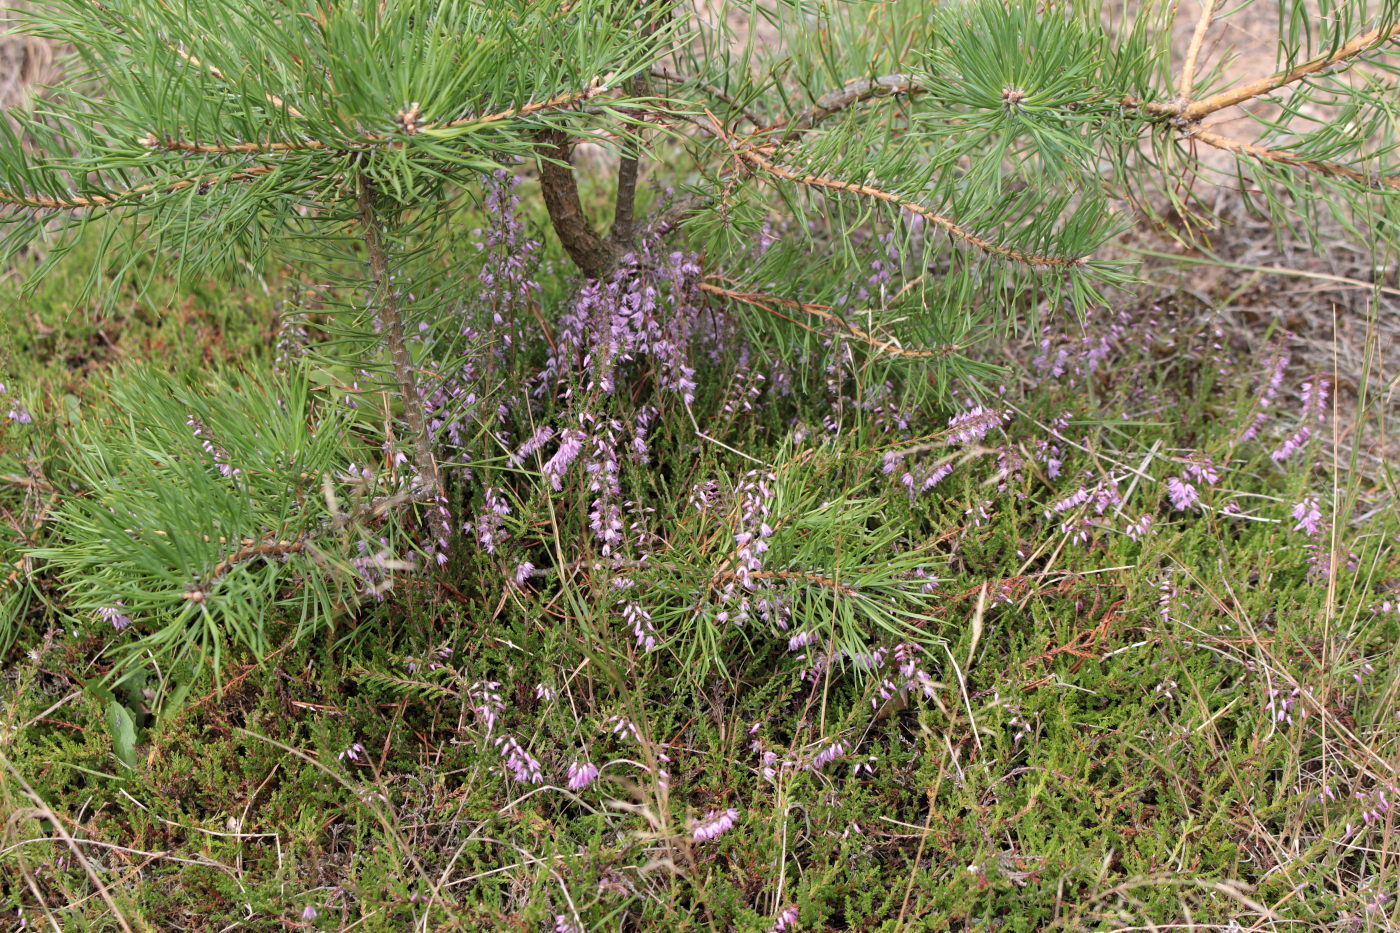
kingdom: Plantae
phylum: Tracheophyta
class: Magnoliopsida
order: Ericales
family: Ericaceae
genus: Calluna
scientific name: Calluna vulgaris
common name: Heather
